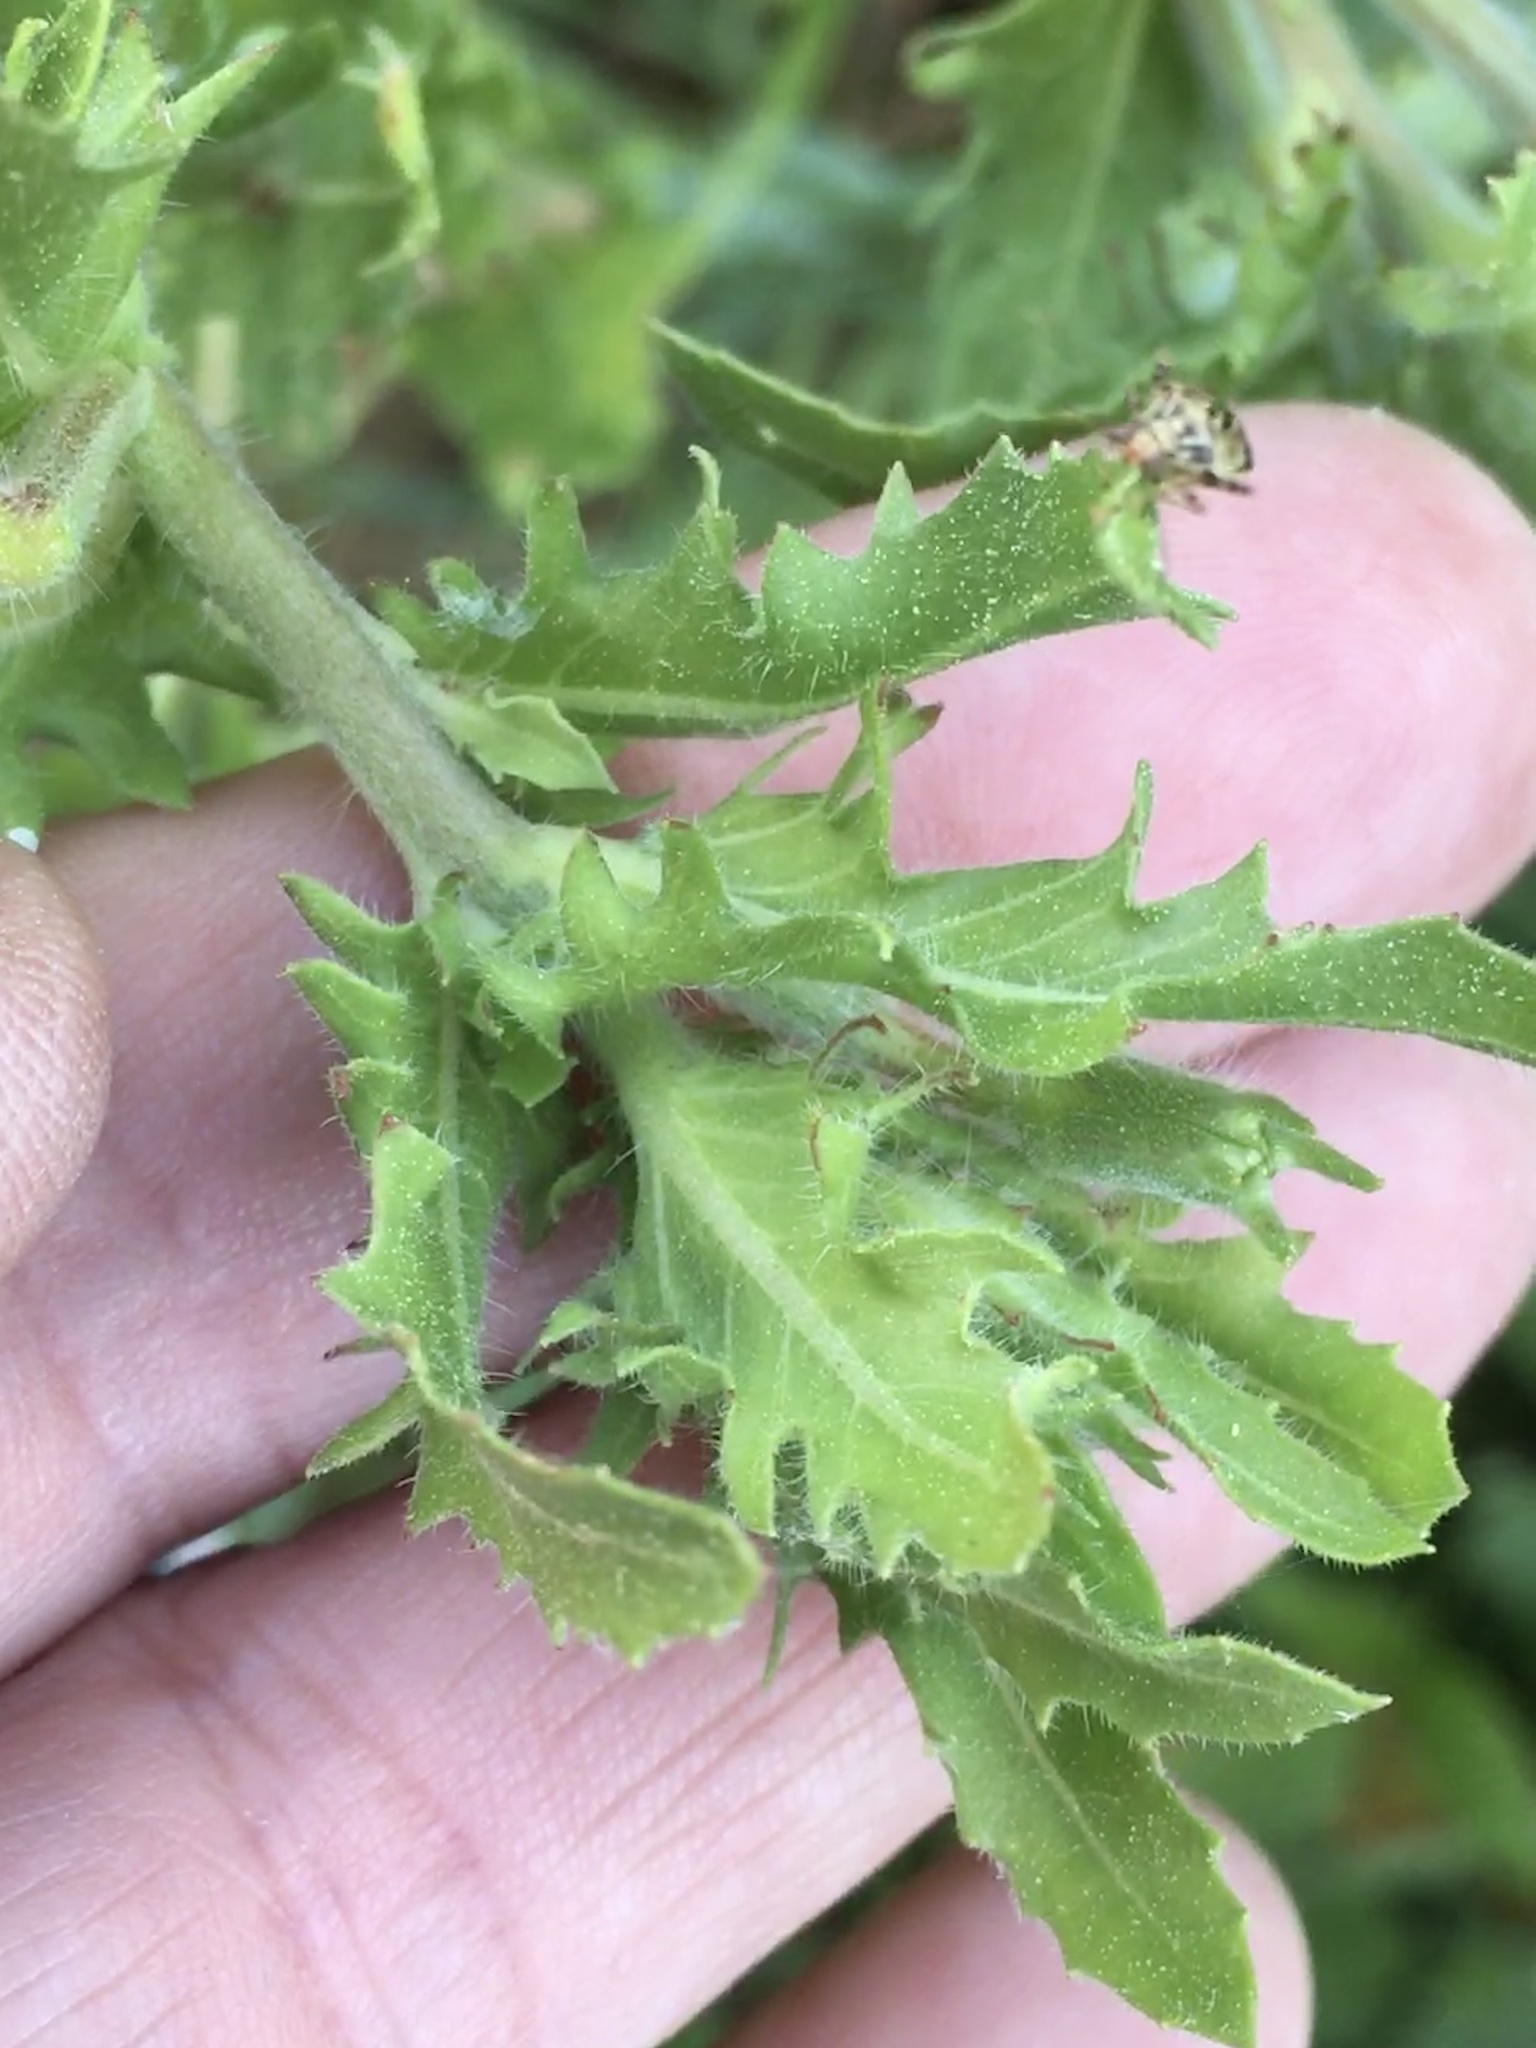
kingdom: Plantae
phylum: Tracheophyta
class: Magnoliopsida
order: Myrtales
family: Onagraceae
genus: Oenothera
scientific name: Oenothera laciniata
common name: Cut-leaved evening-primrose
